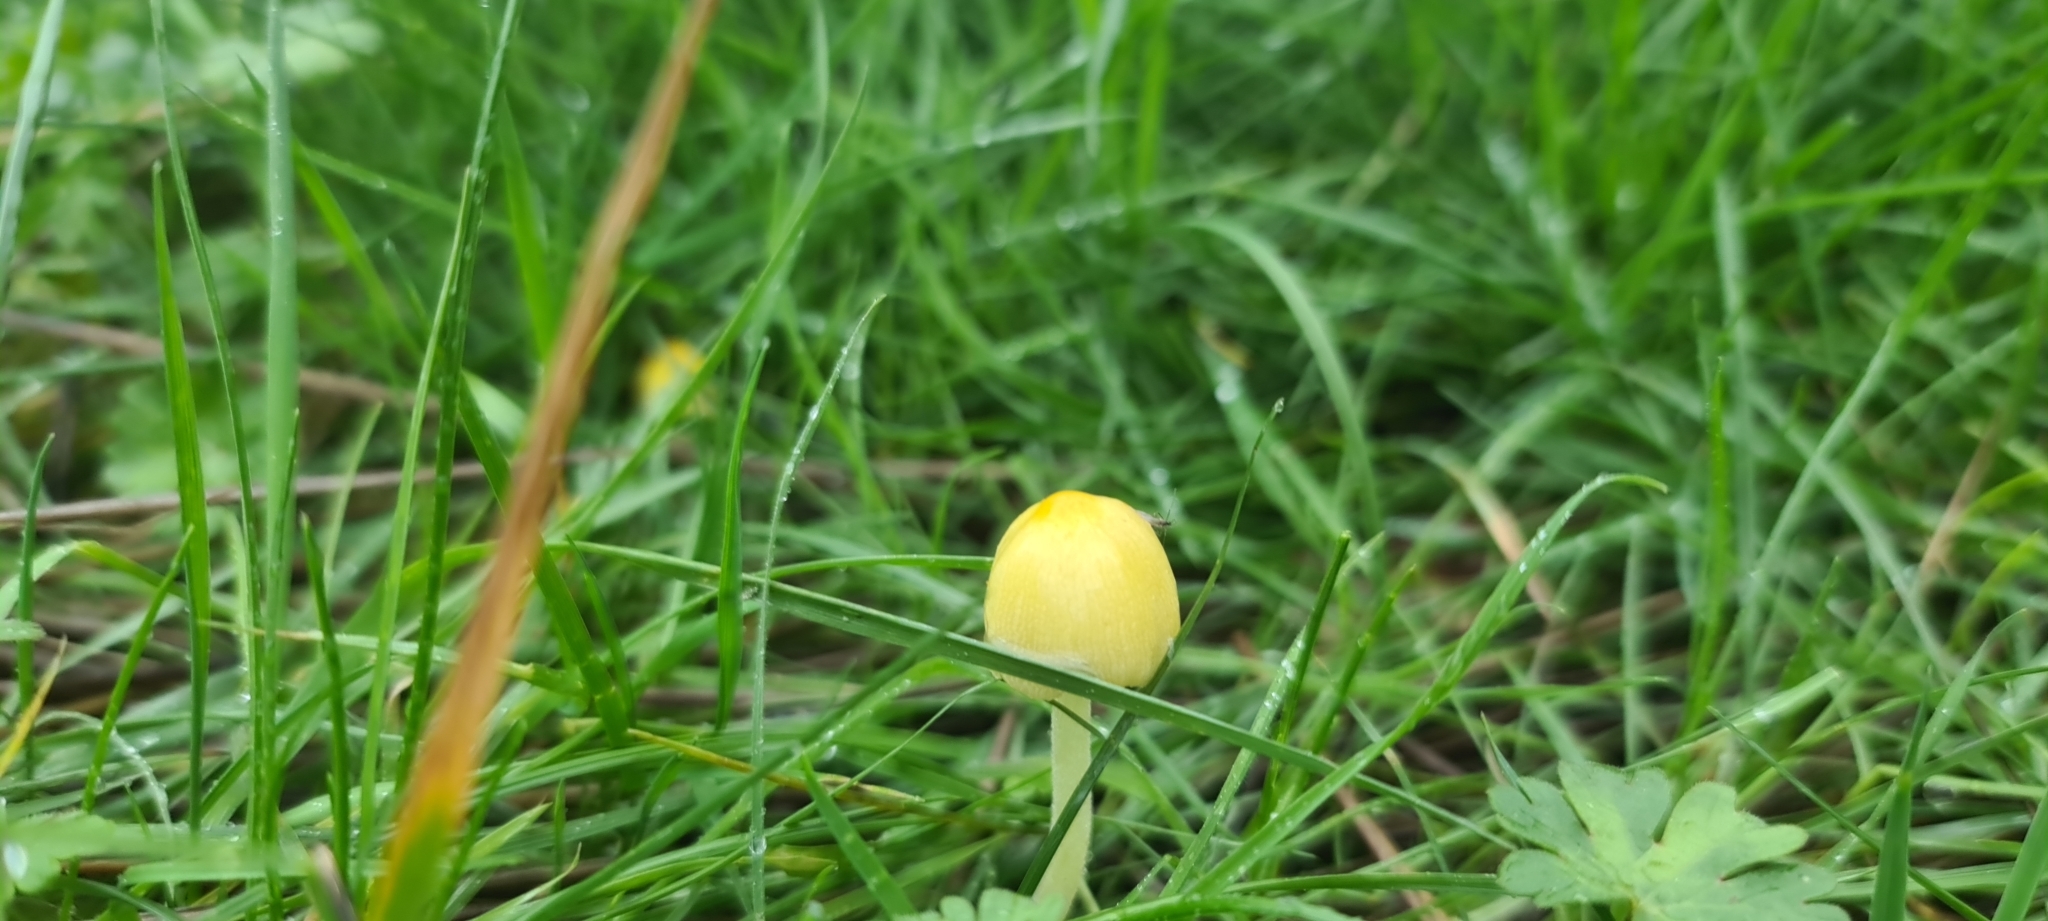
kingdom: Fungi
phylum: Basidiomycota
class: Agaricomycetes
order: Agaricales
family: Bolbitiaceae
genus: Bolbitius
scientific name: Bolbitius titubans
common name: Yellow fieldcap
